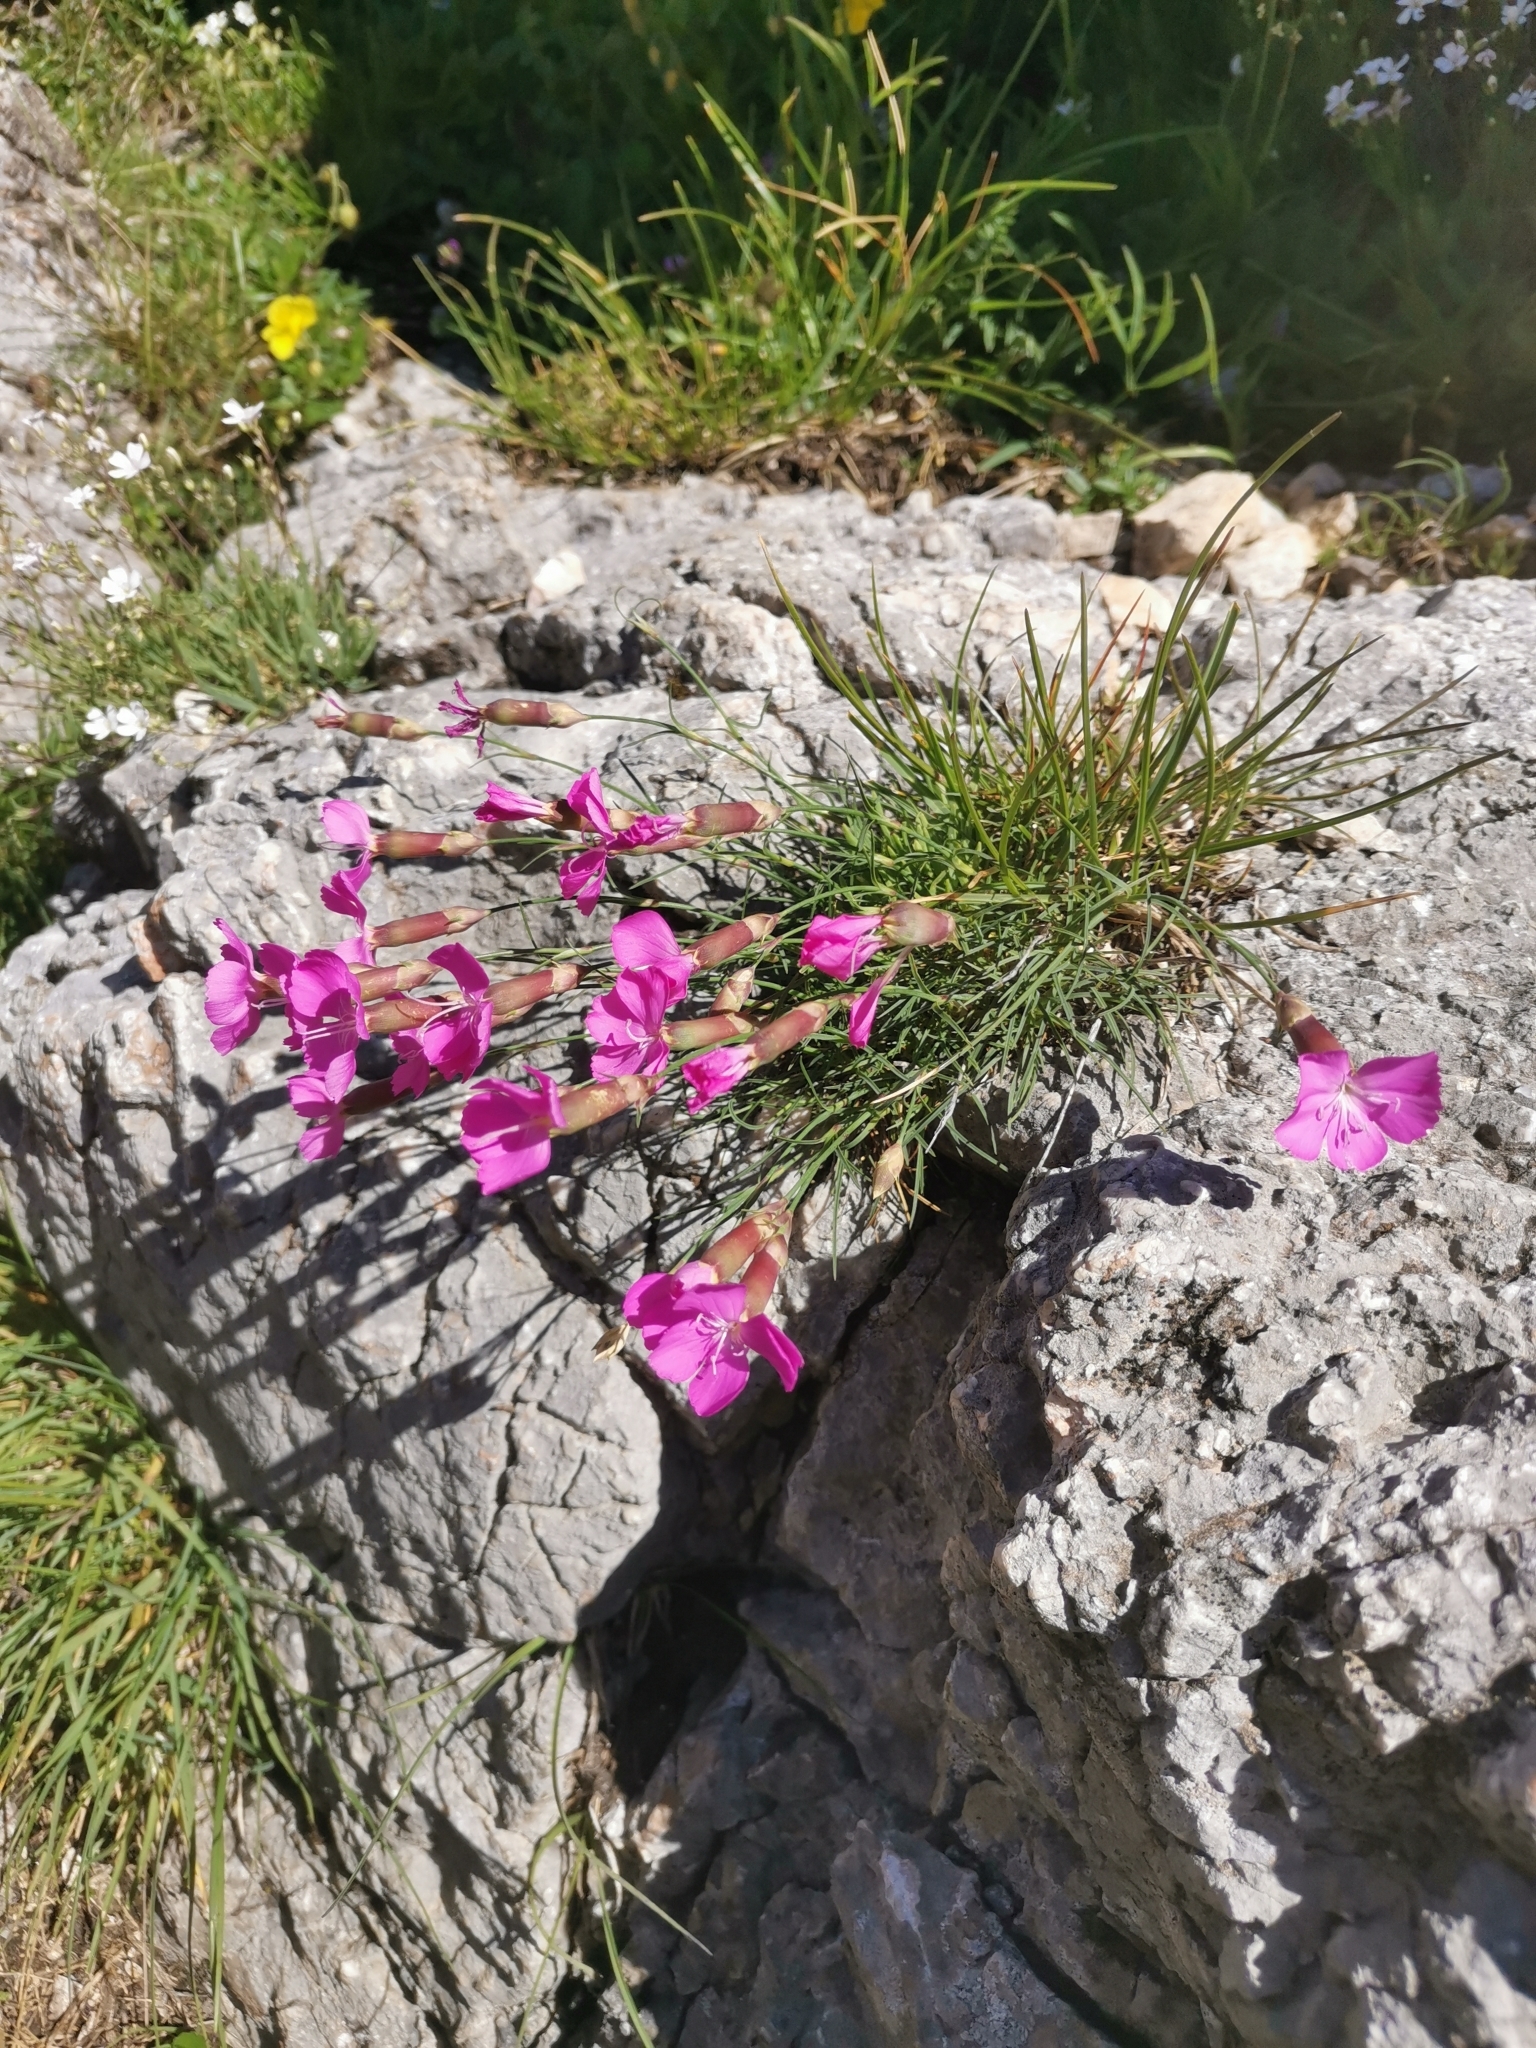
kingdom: Plantae
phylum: Tracheophyta
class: Magnoliopsida
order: Caryophyllales
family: Caryophyllaceae
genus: Dianthus
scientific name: Dianthus sylvestris
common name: Wood pink
